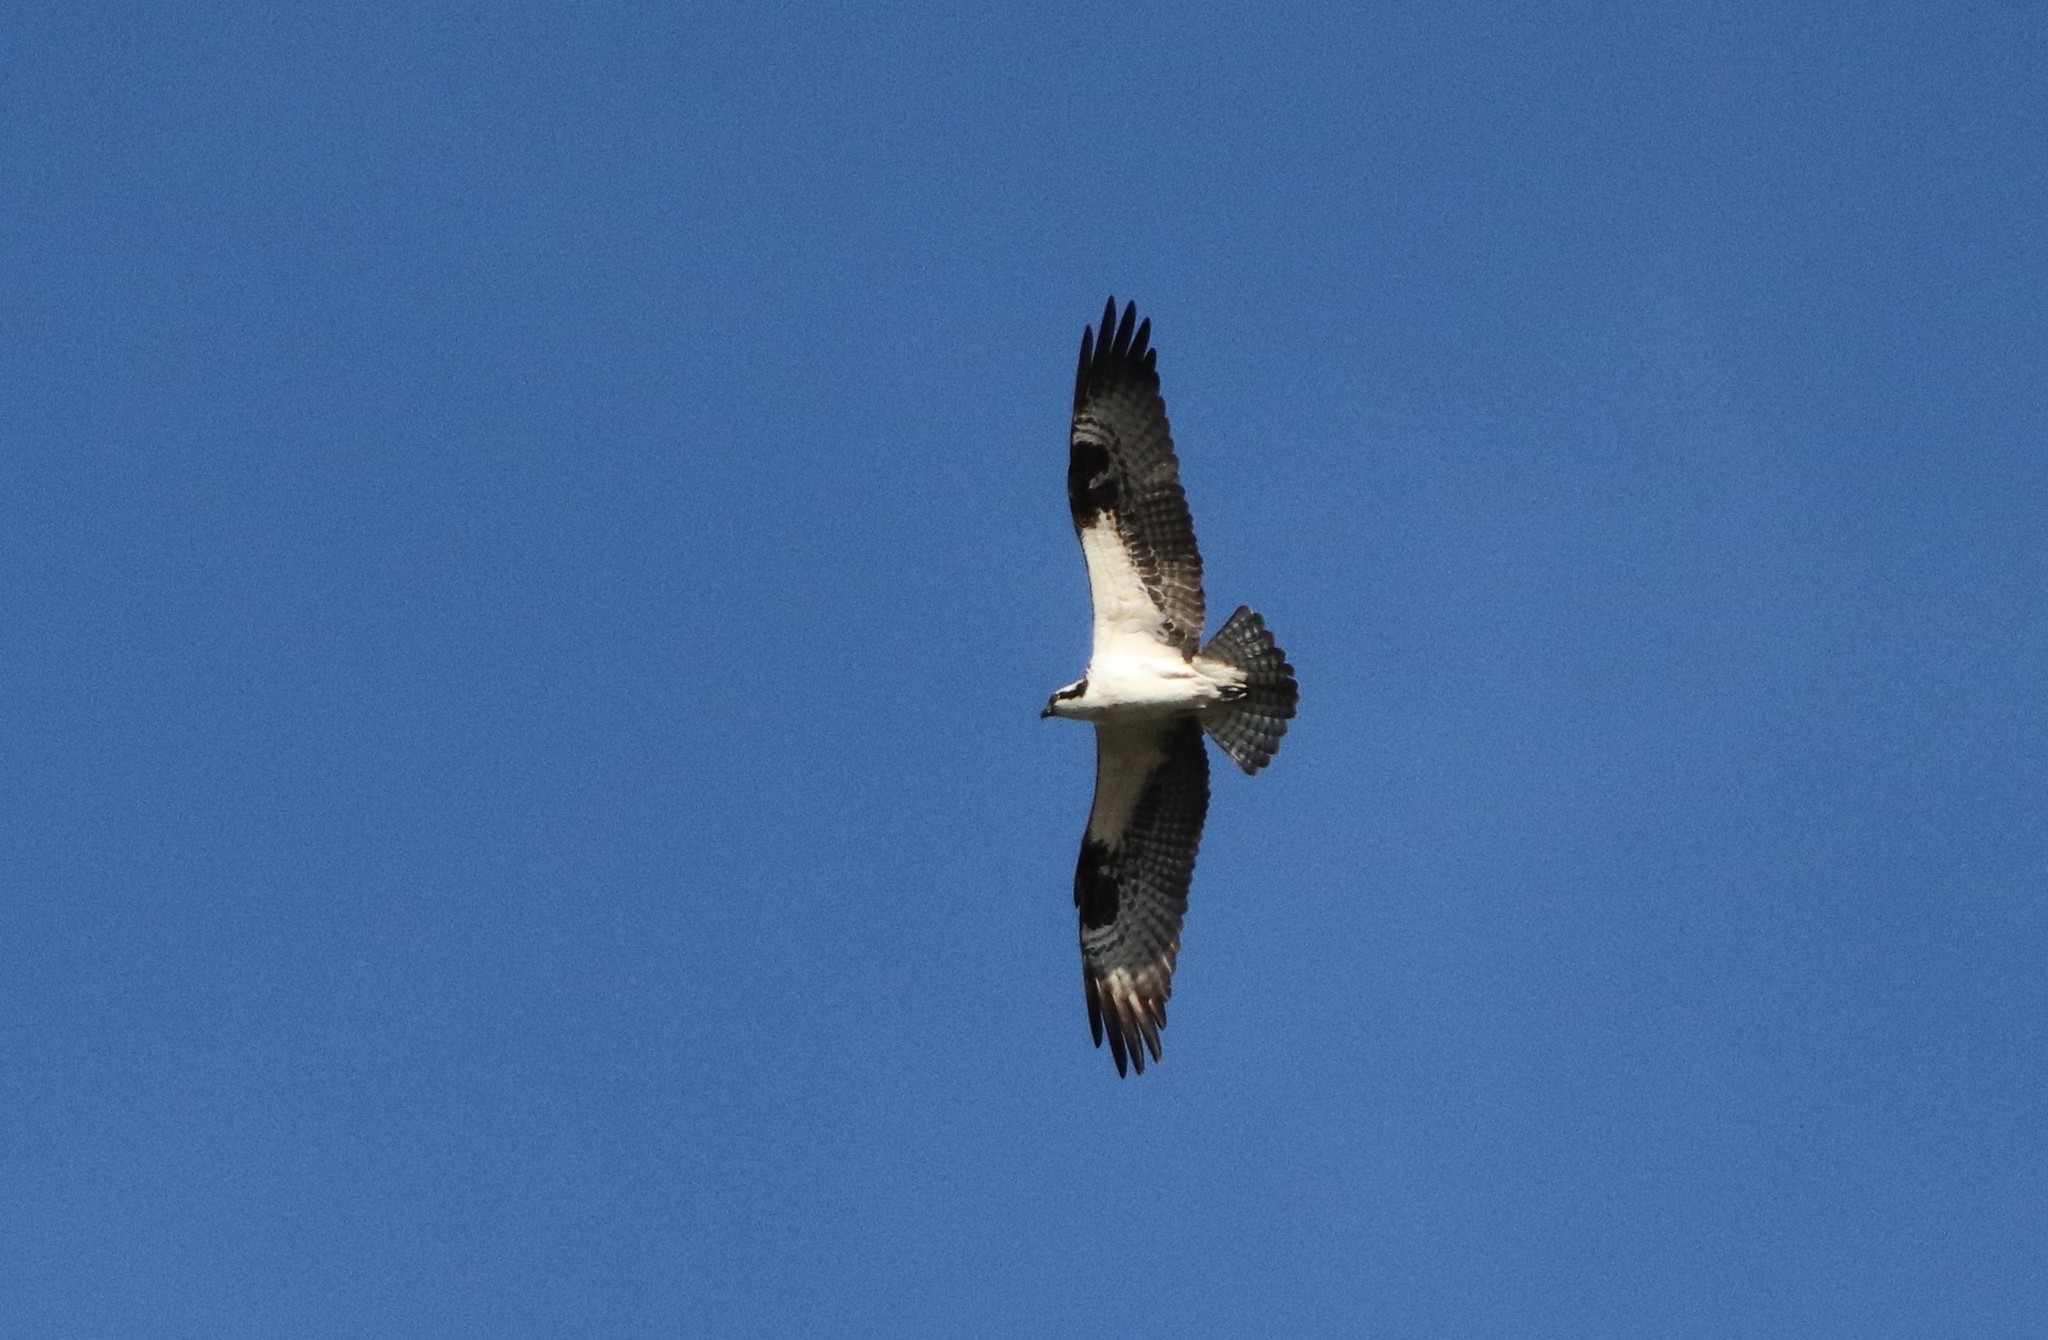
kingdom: Animalia
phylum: Chordata
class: Aves
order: Accipitriformes
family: Pandionidae
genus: Pandion
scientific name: Pandion haliaetus
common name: Osprey
